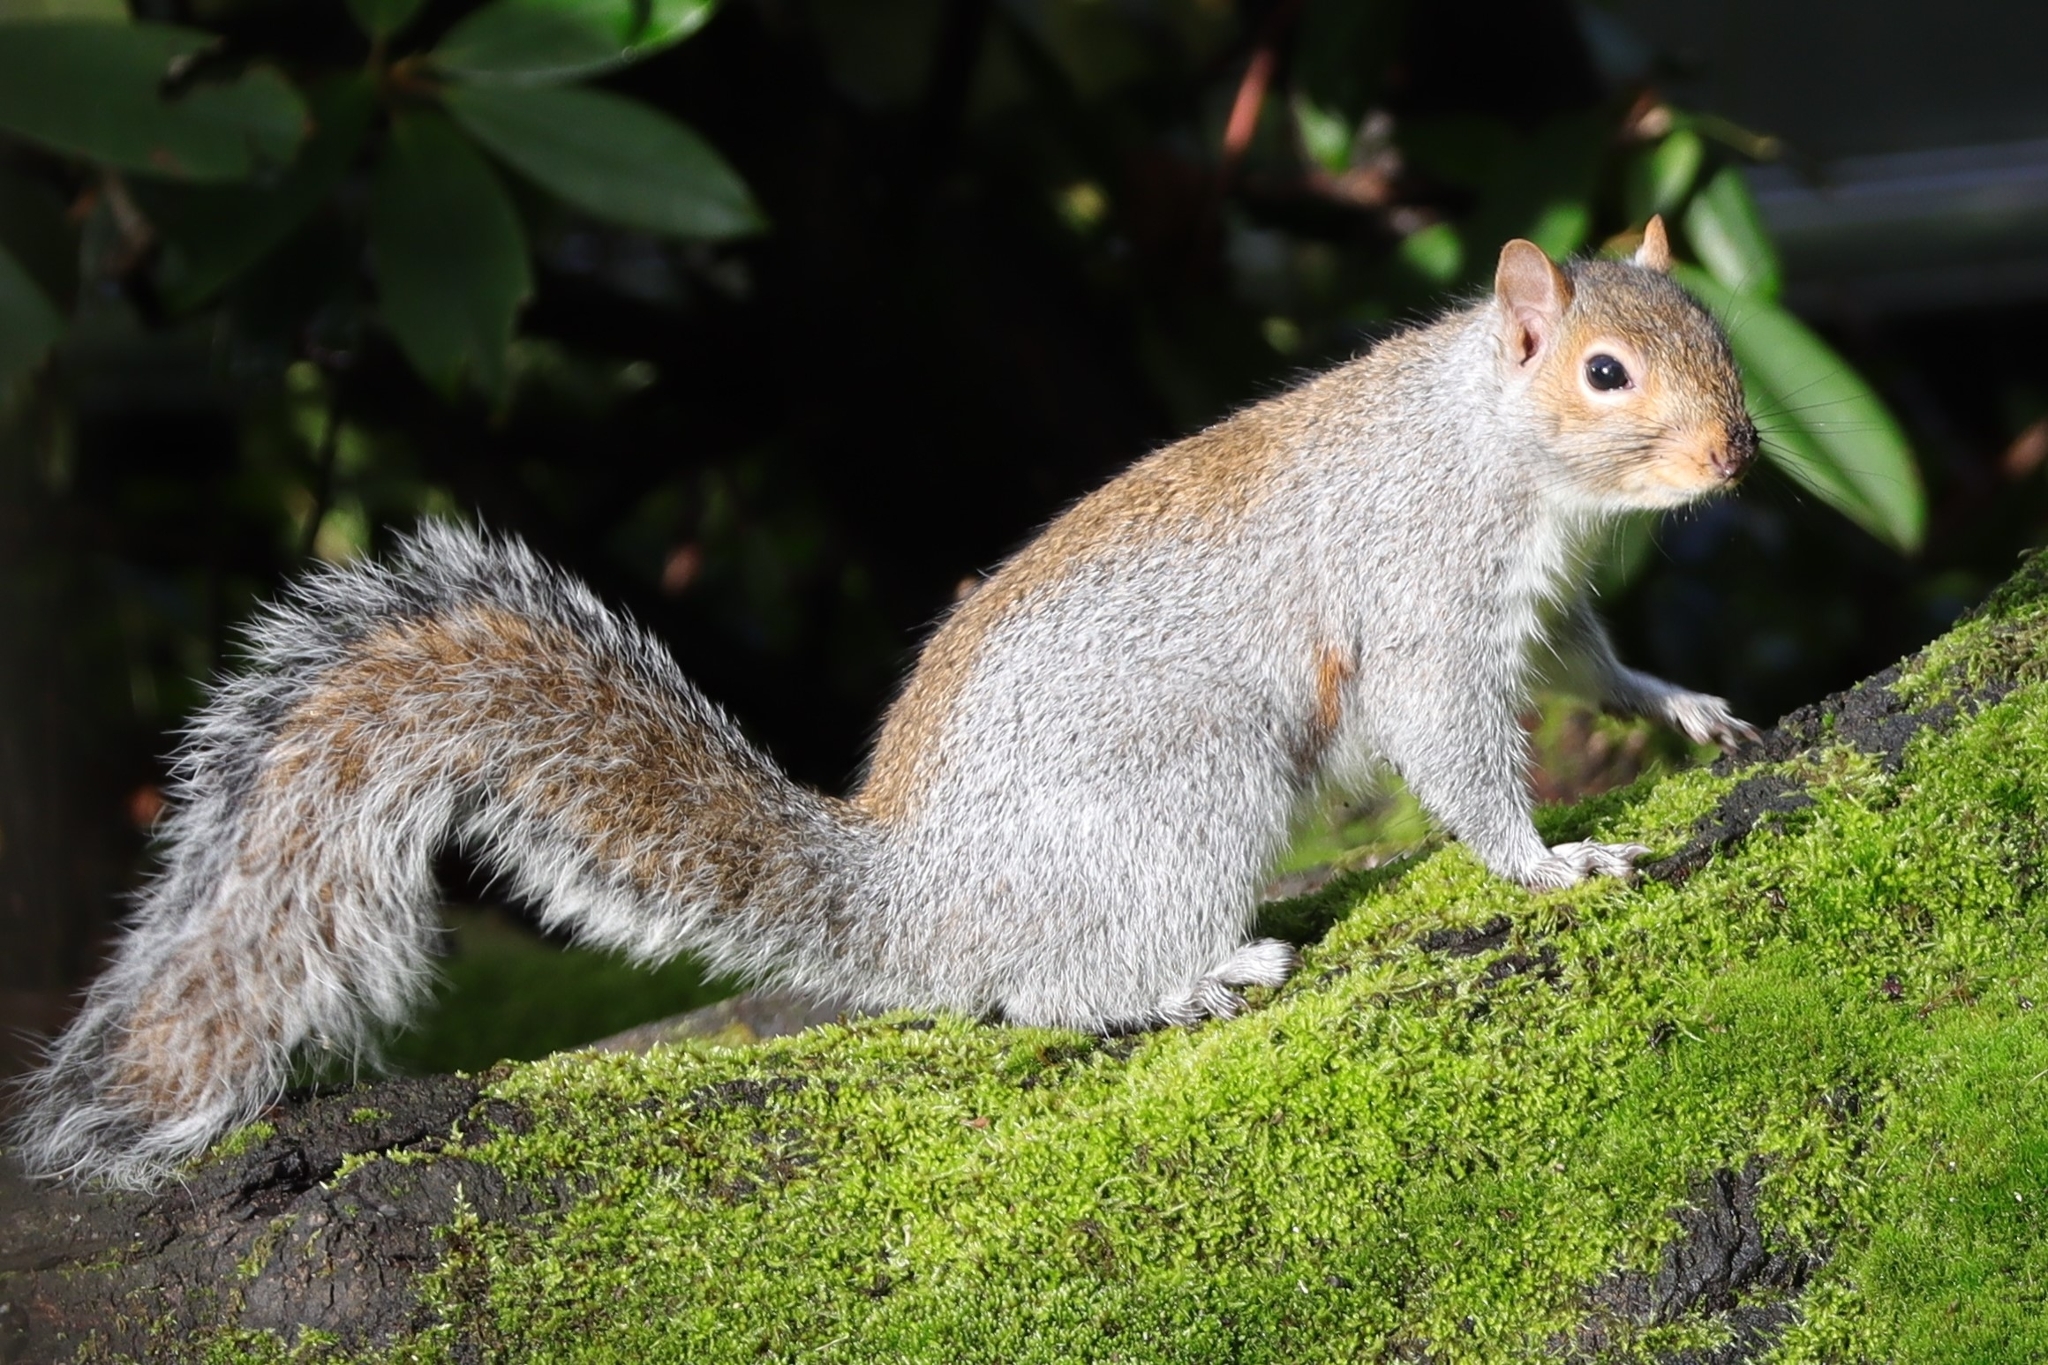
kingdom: Animalia
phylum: Chordata
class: Mammalia
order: Rodentia
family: Sciuridae
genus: Sciurus
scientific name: Sciurus carolinensis
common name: Eastern gray squirrel
